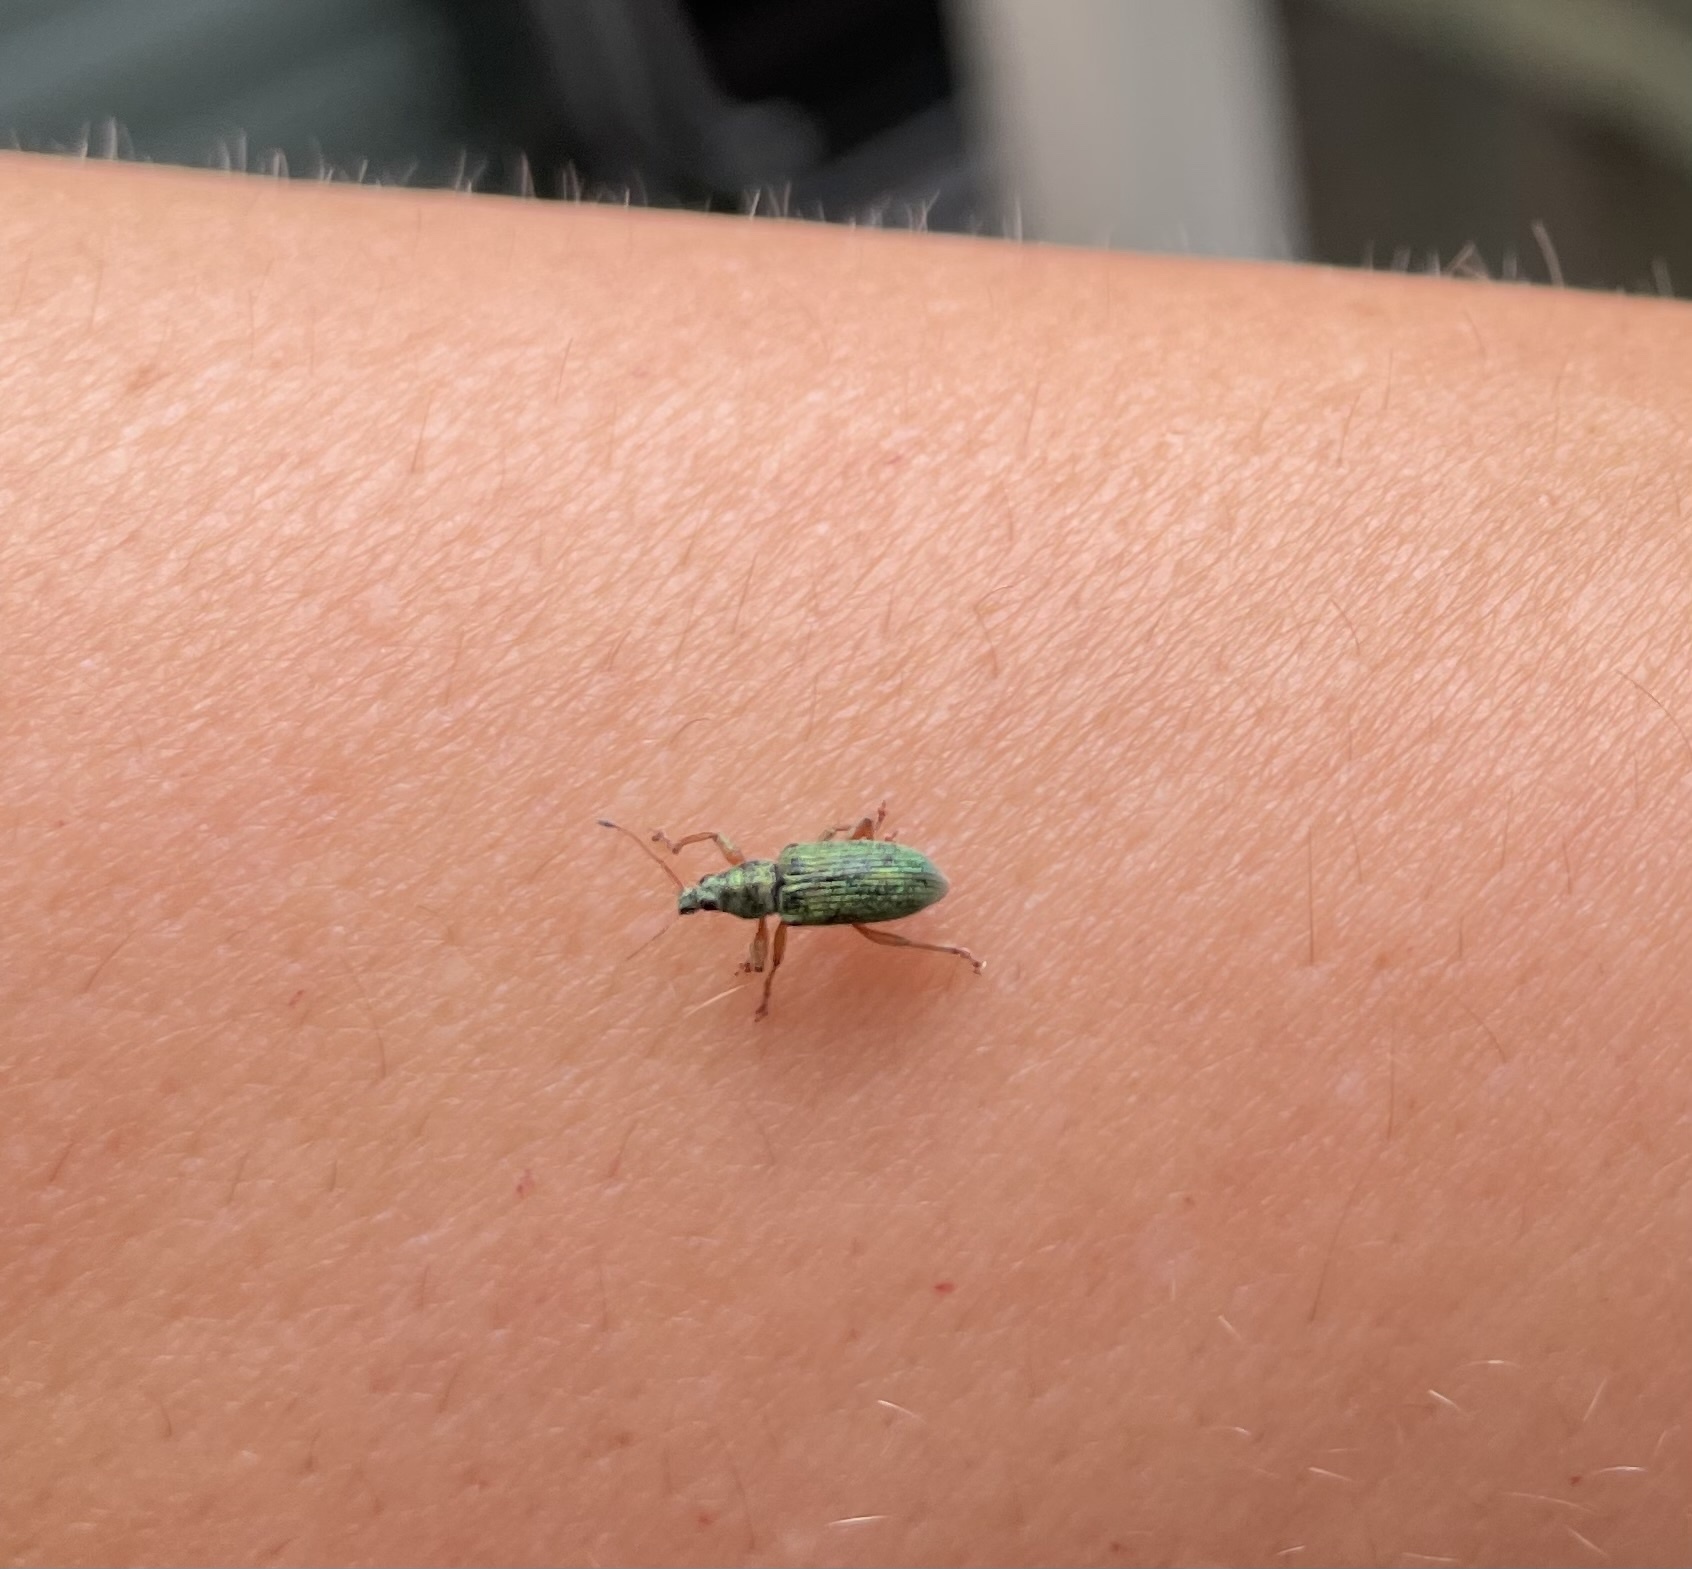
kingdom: Animalia
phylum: Arthropoda
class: Insecta
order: Coleoptera
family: Curculionidae
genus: Polydrusus
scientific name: Polydrusus formosus
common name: Weevil
